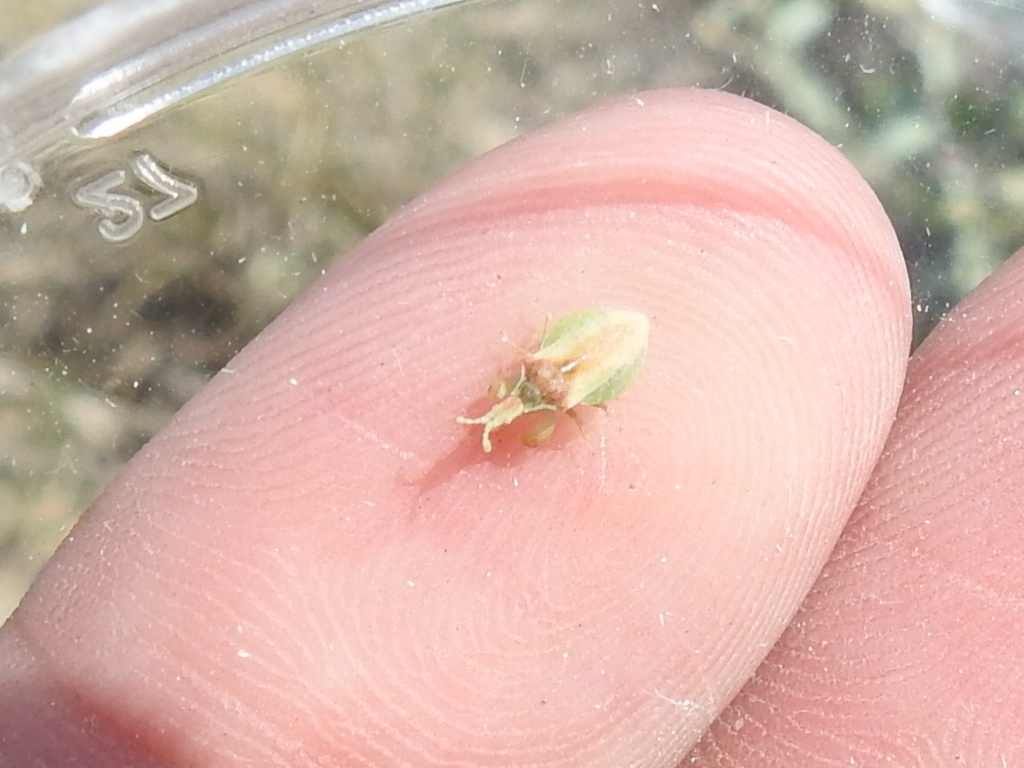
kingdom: Animalia
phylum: Arthropoda
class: Insecta
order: Hemiptera
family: Reduviidae
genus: Lophoscutus
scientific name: Lophoscutus prehensilis
